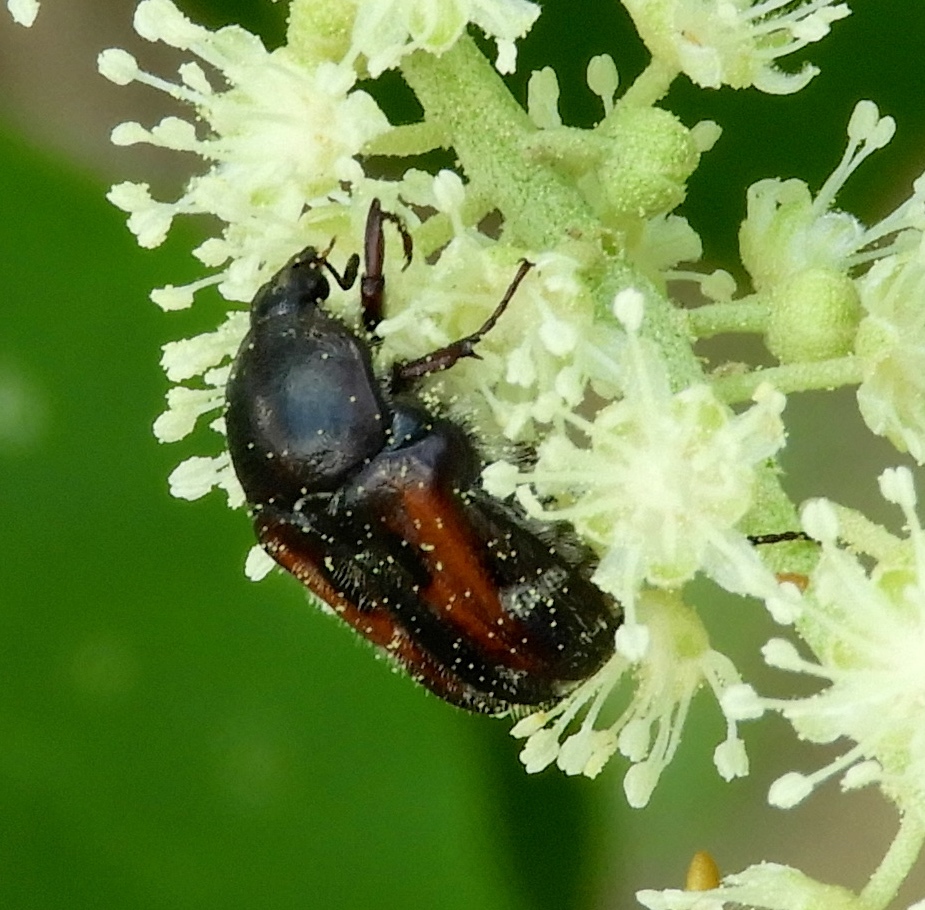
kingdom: Animalia
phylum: Arthropoda
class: Insecta
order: Coleoptera
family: Scarabaeidae
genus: Euphoria
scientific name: Euphoria pulchella
